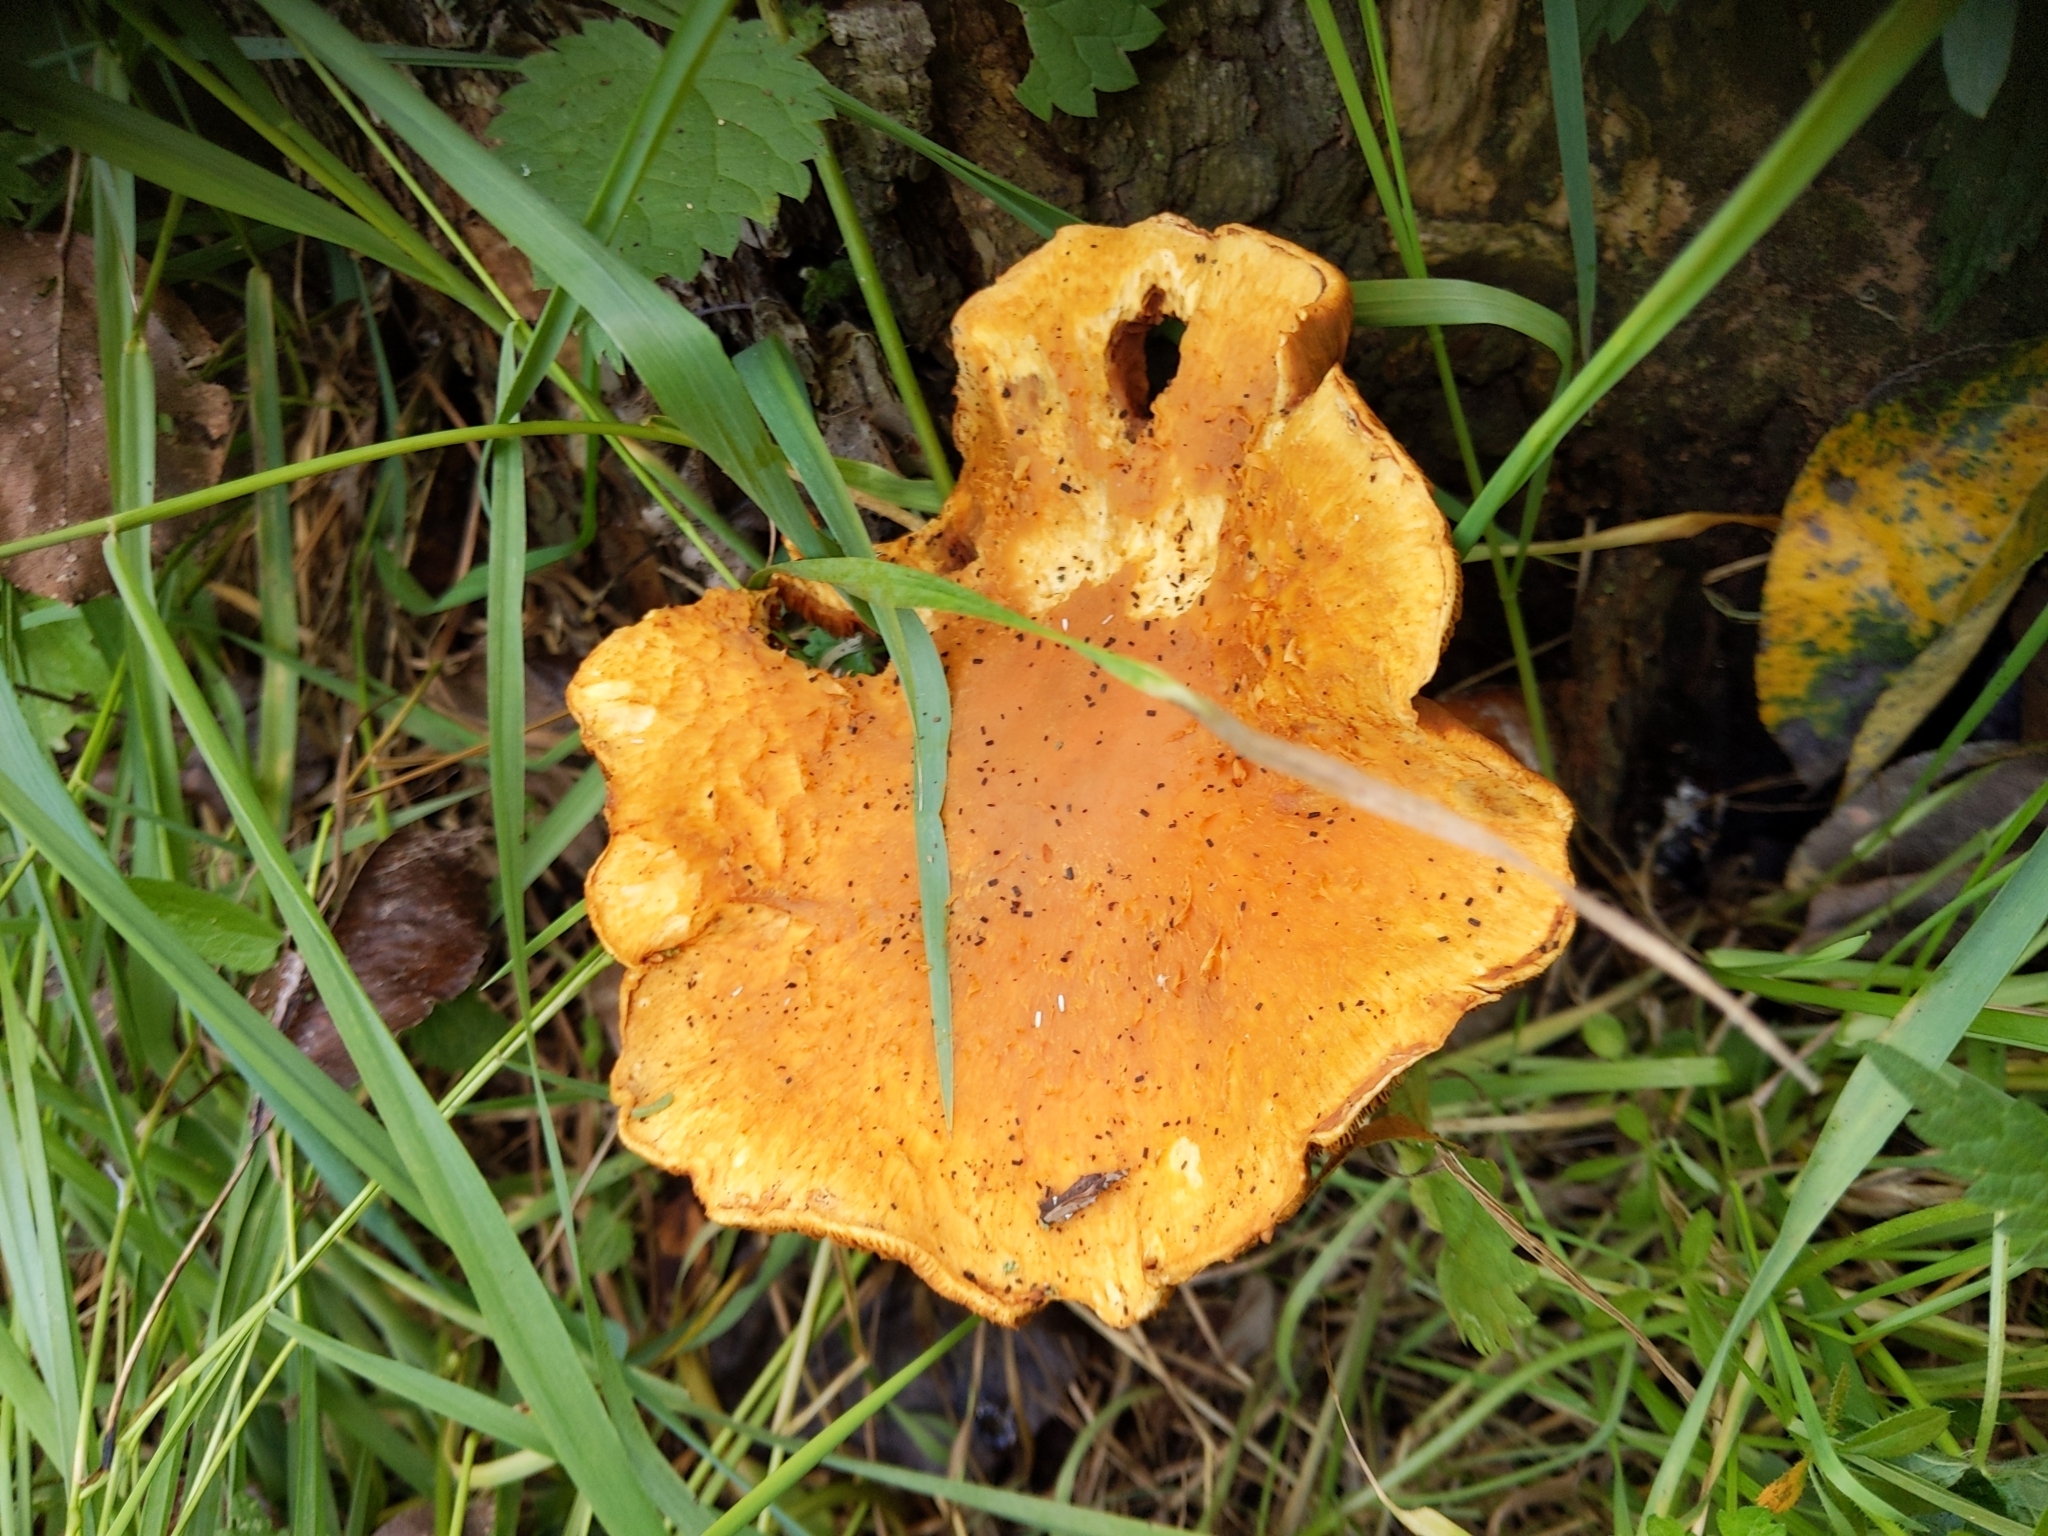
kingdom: Fungi
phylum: Basidiomycota
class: Agaricomycetes
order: Agaricales
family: Hymenogastraceae
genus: Gymnopilus
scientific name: Gymnopilus junonius
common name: Spectacular rustgill
